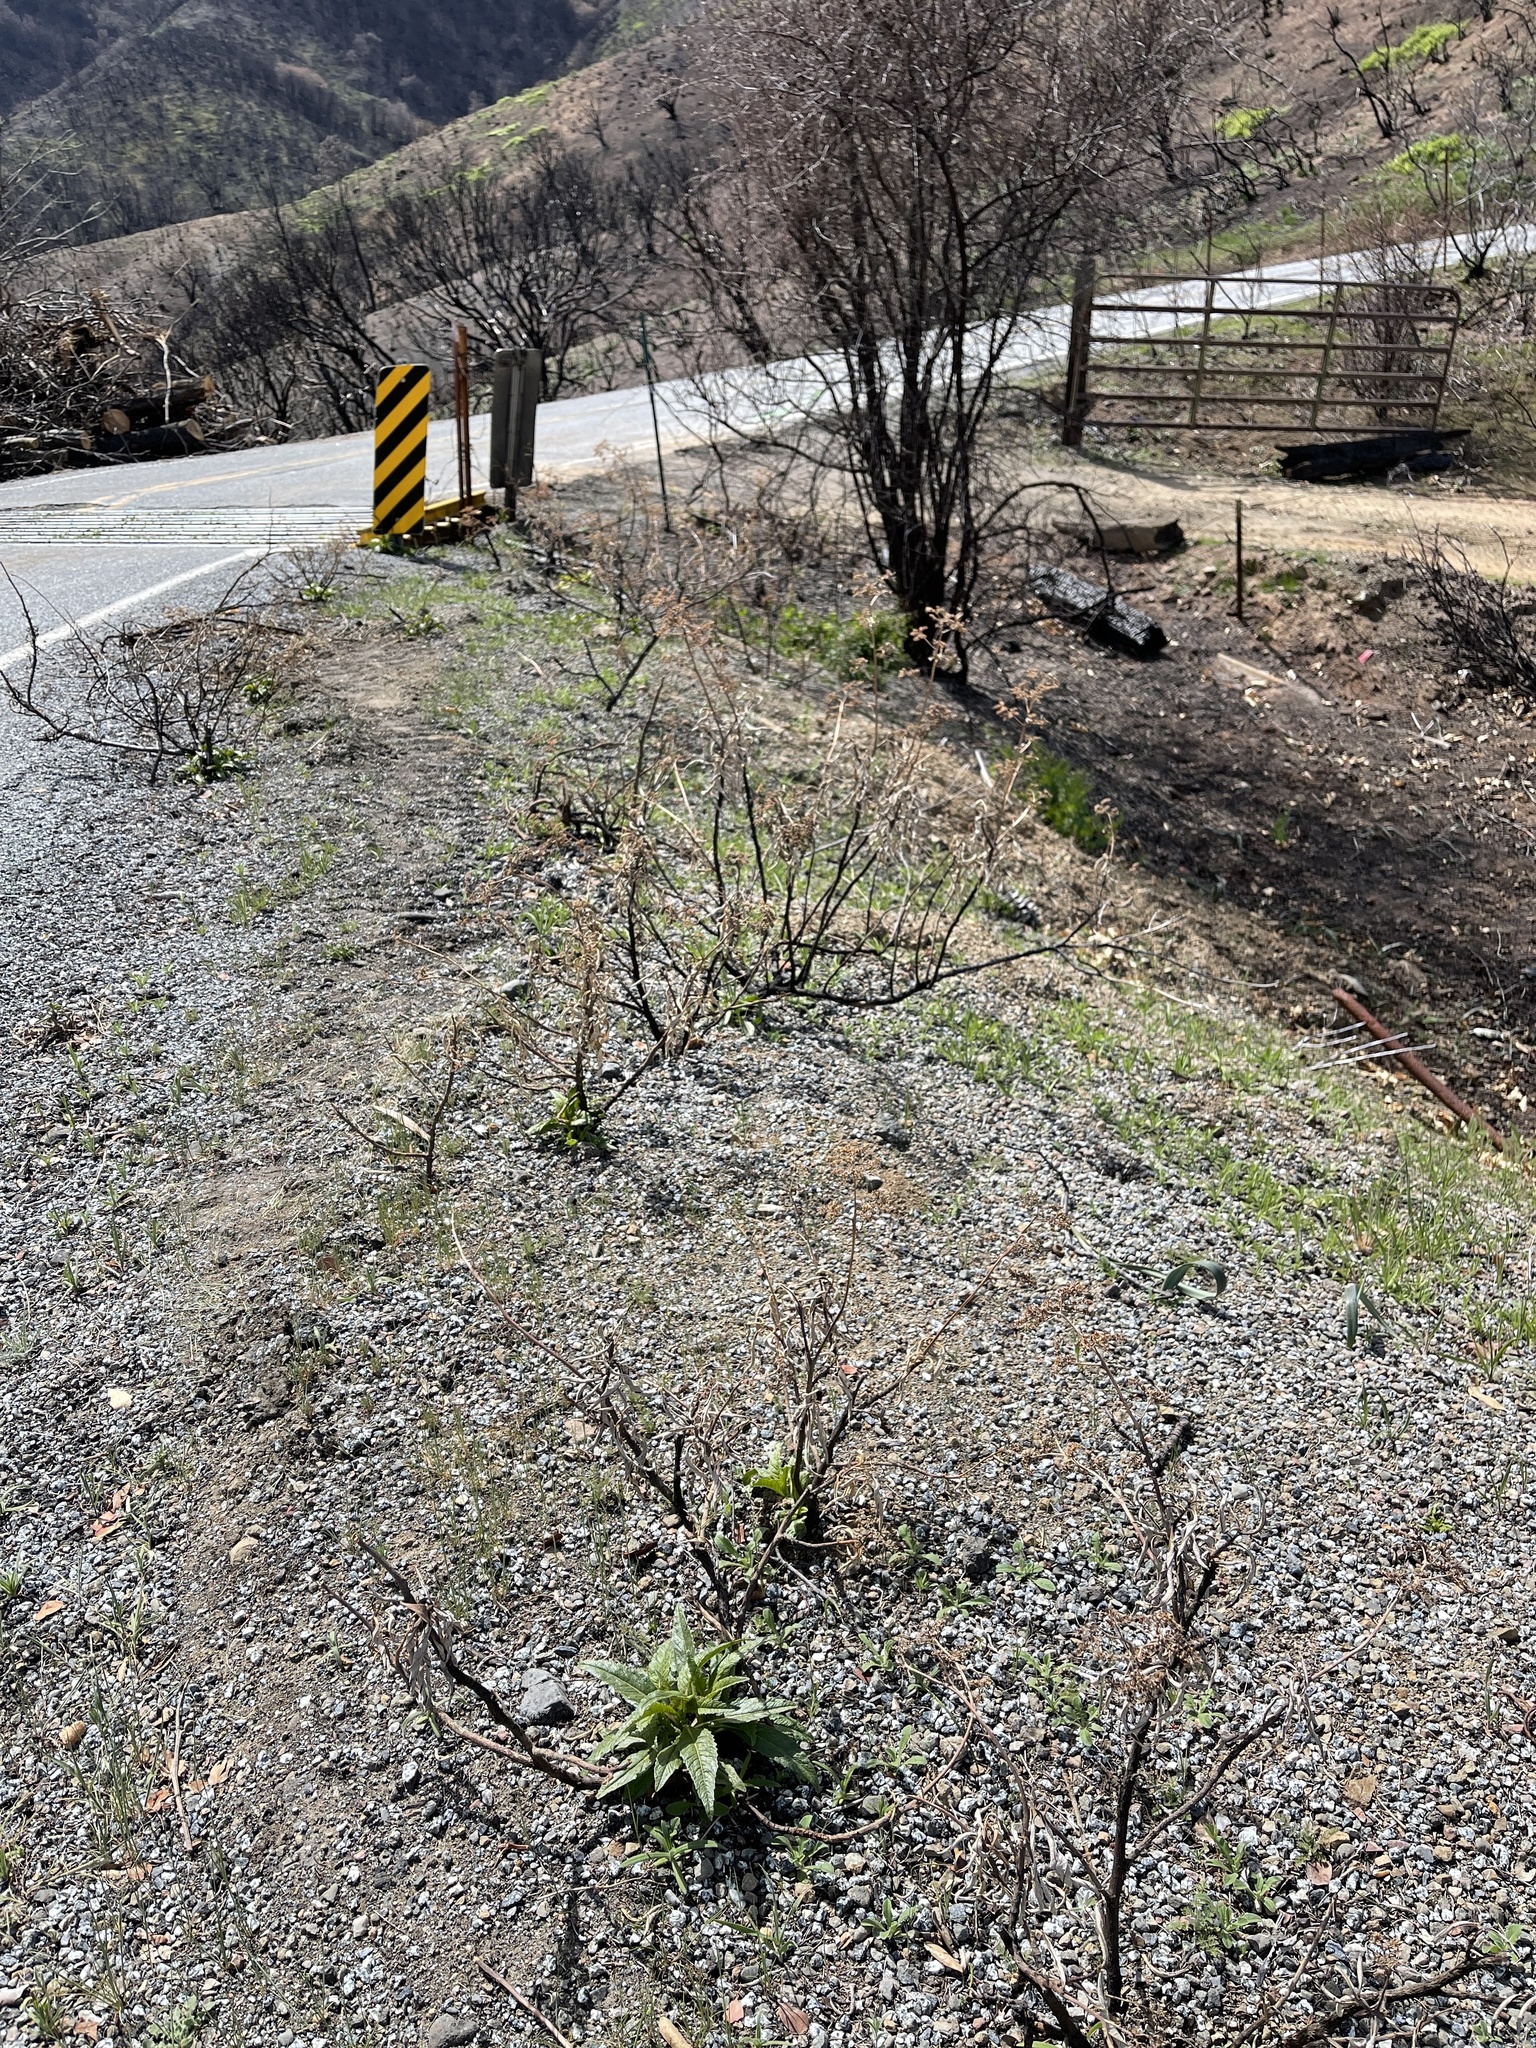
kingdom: Plantae
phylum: Tracheophyta
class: Magnoliopsida
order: Boraginales
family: Namaceae
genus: Eriodictyon
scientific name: Eriodictyon californicum
